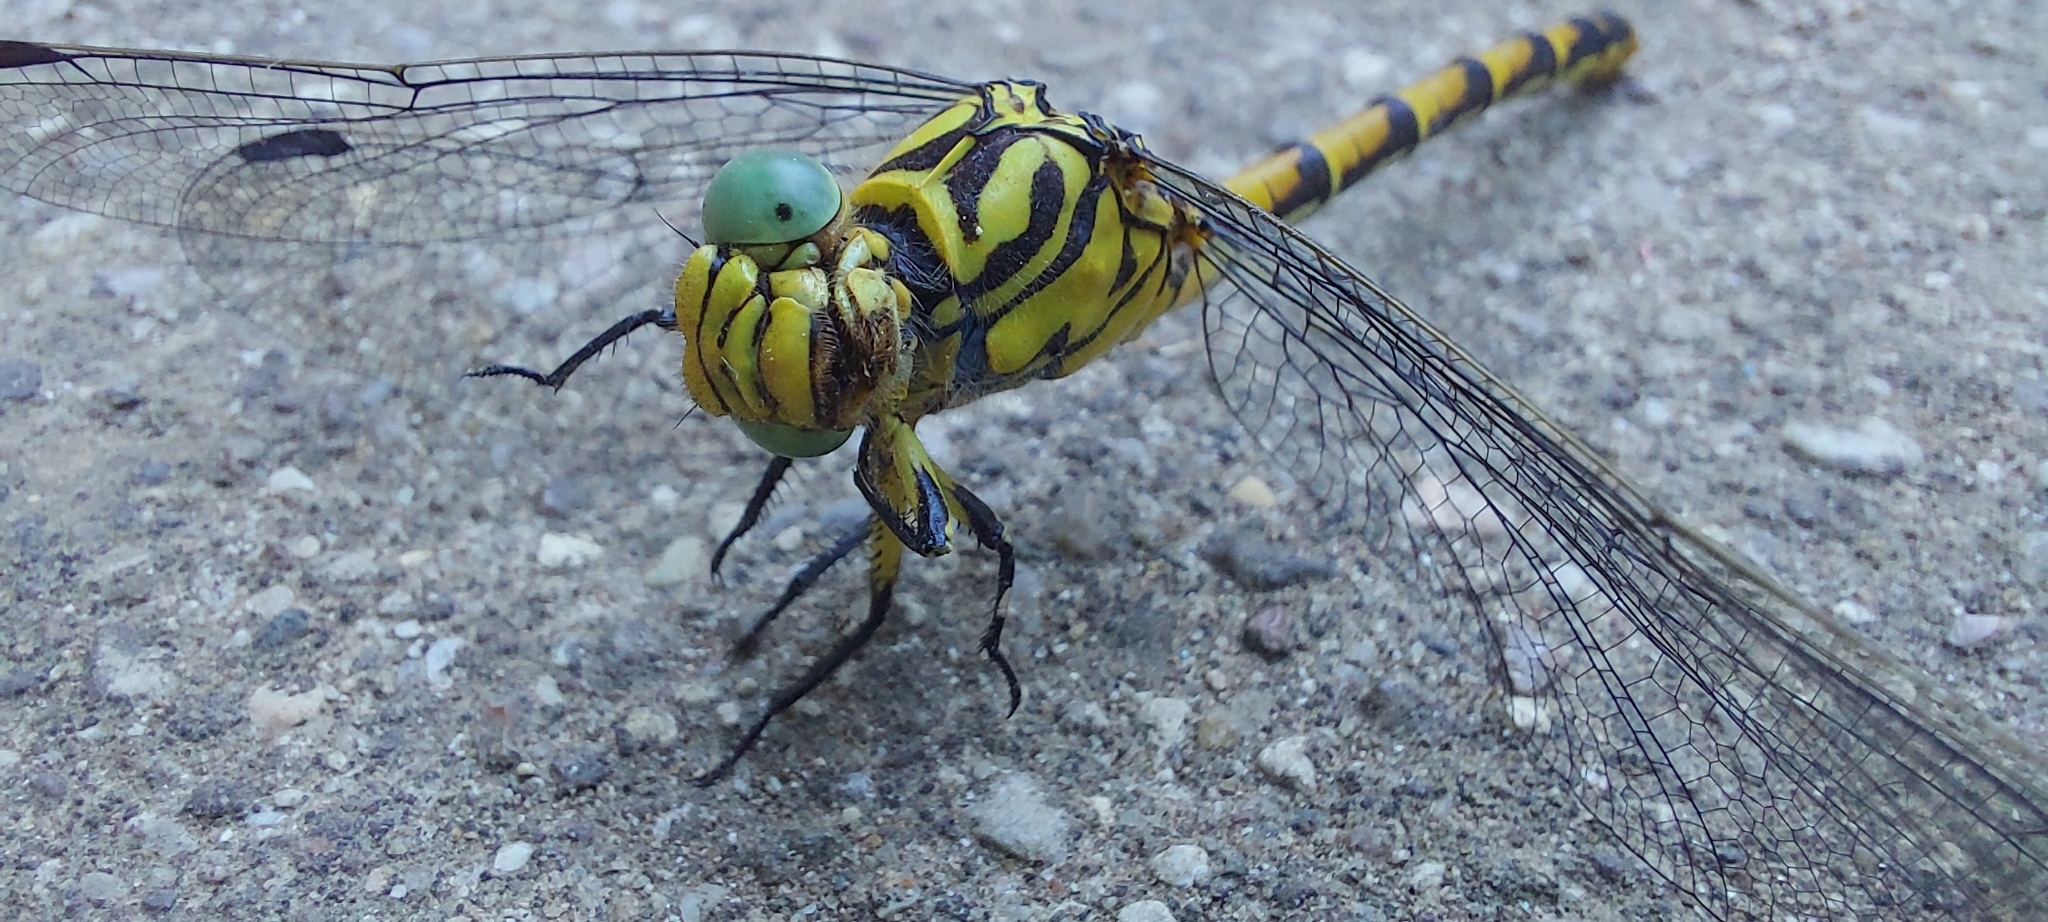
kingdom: Animalia
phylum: Arthropoda
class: Insecta
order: Odonata
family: Gomphidae
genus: Onychogomphus
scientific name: Onychogomphus forcipatus
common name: Small pincertail
